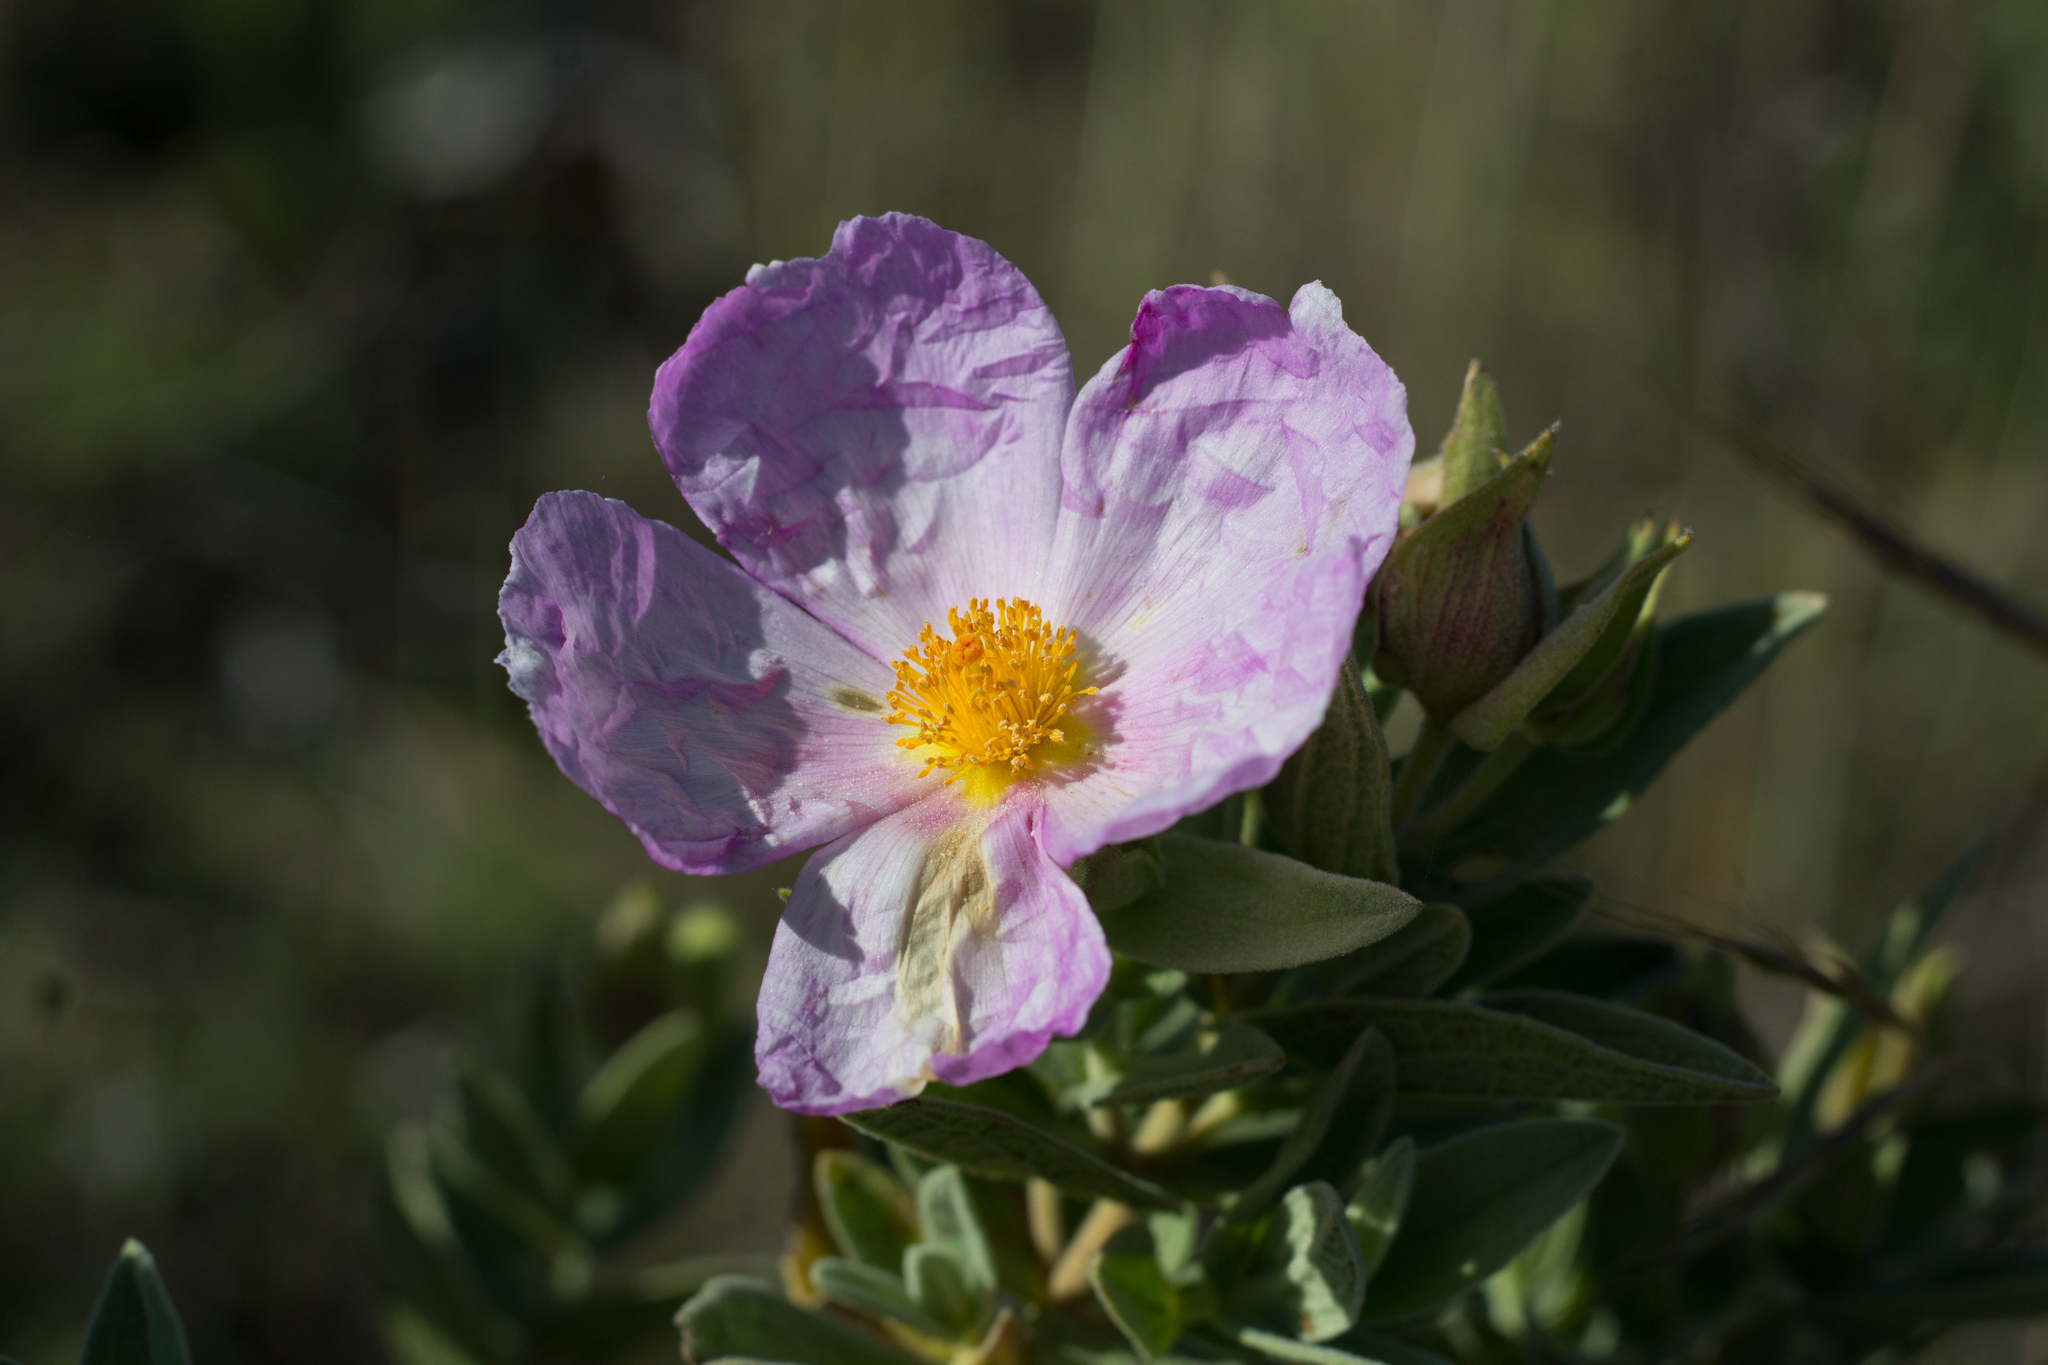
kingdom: Plantae
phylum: Tracheophyta
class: Magnoliopsida
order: Malvales
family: Cistaceae
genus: Cistus
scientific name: Cistus albidus
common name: White-leaf rock-rose
